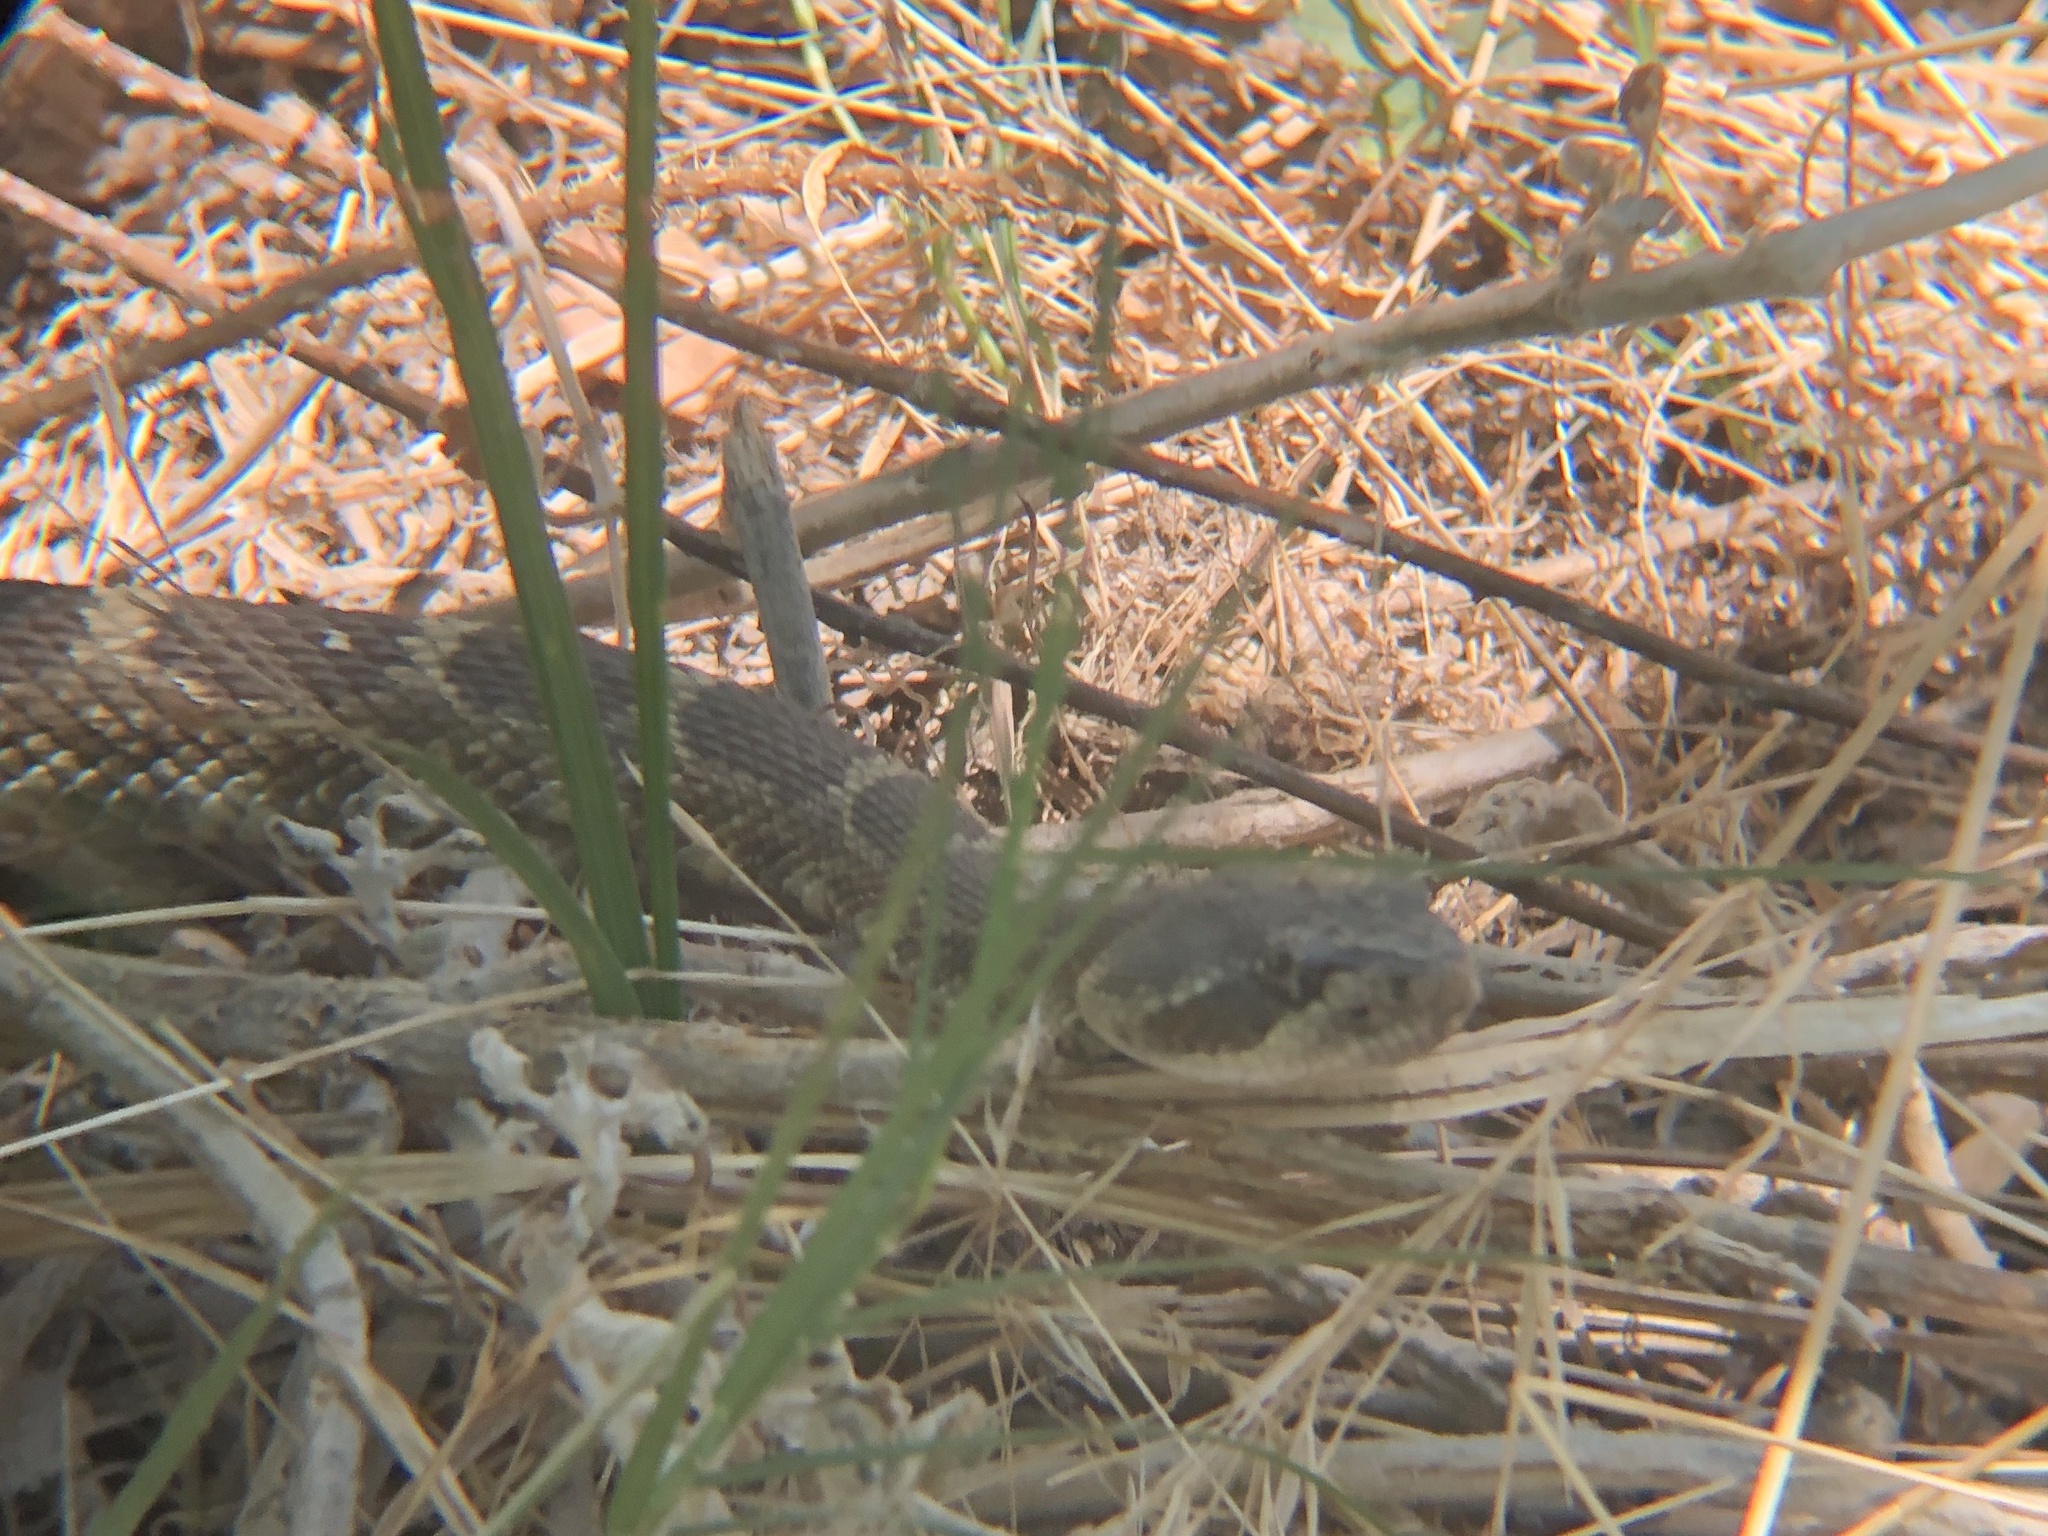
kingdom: Animalia
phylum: Chordata
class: Squamata
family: Viperidae
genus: Crotalus
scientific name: Crotalus oreganus
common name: Abyssus
